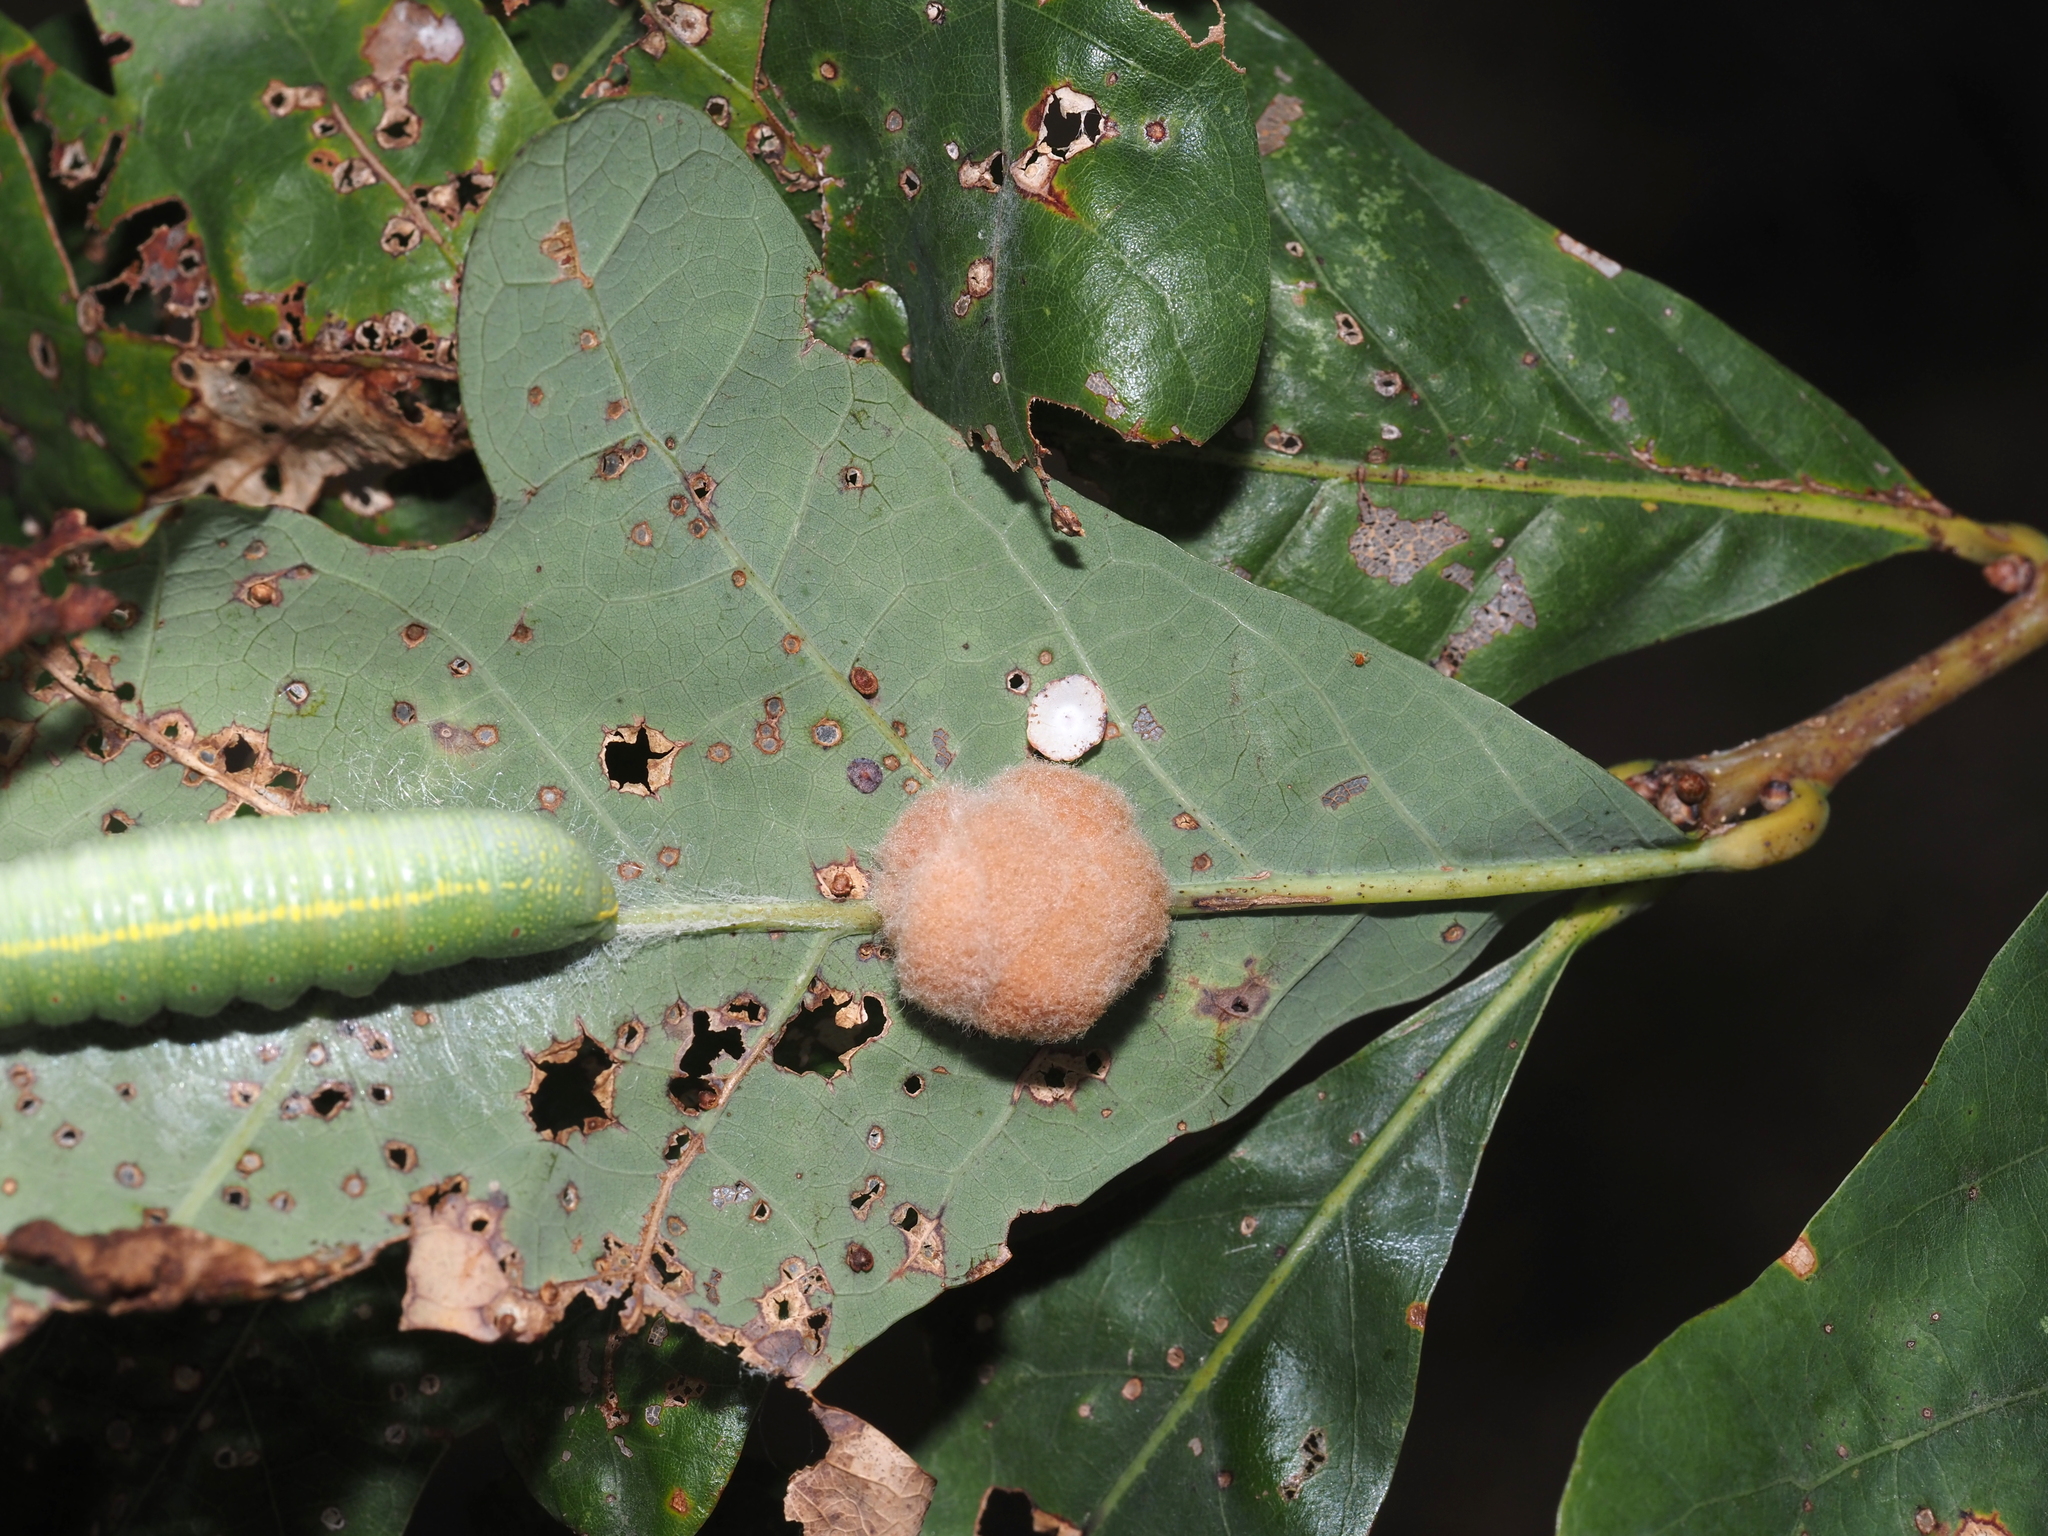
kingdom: Animalia
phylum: Arthropoda
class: Insecta
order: Hymenoptera
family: Cynipidae
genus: Phylloteras
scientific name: Phylloteras poculum
